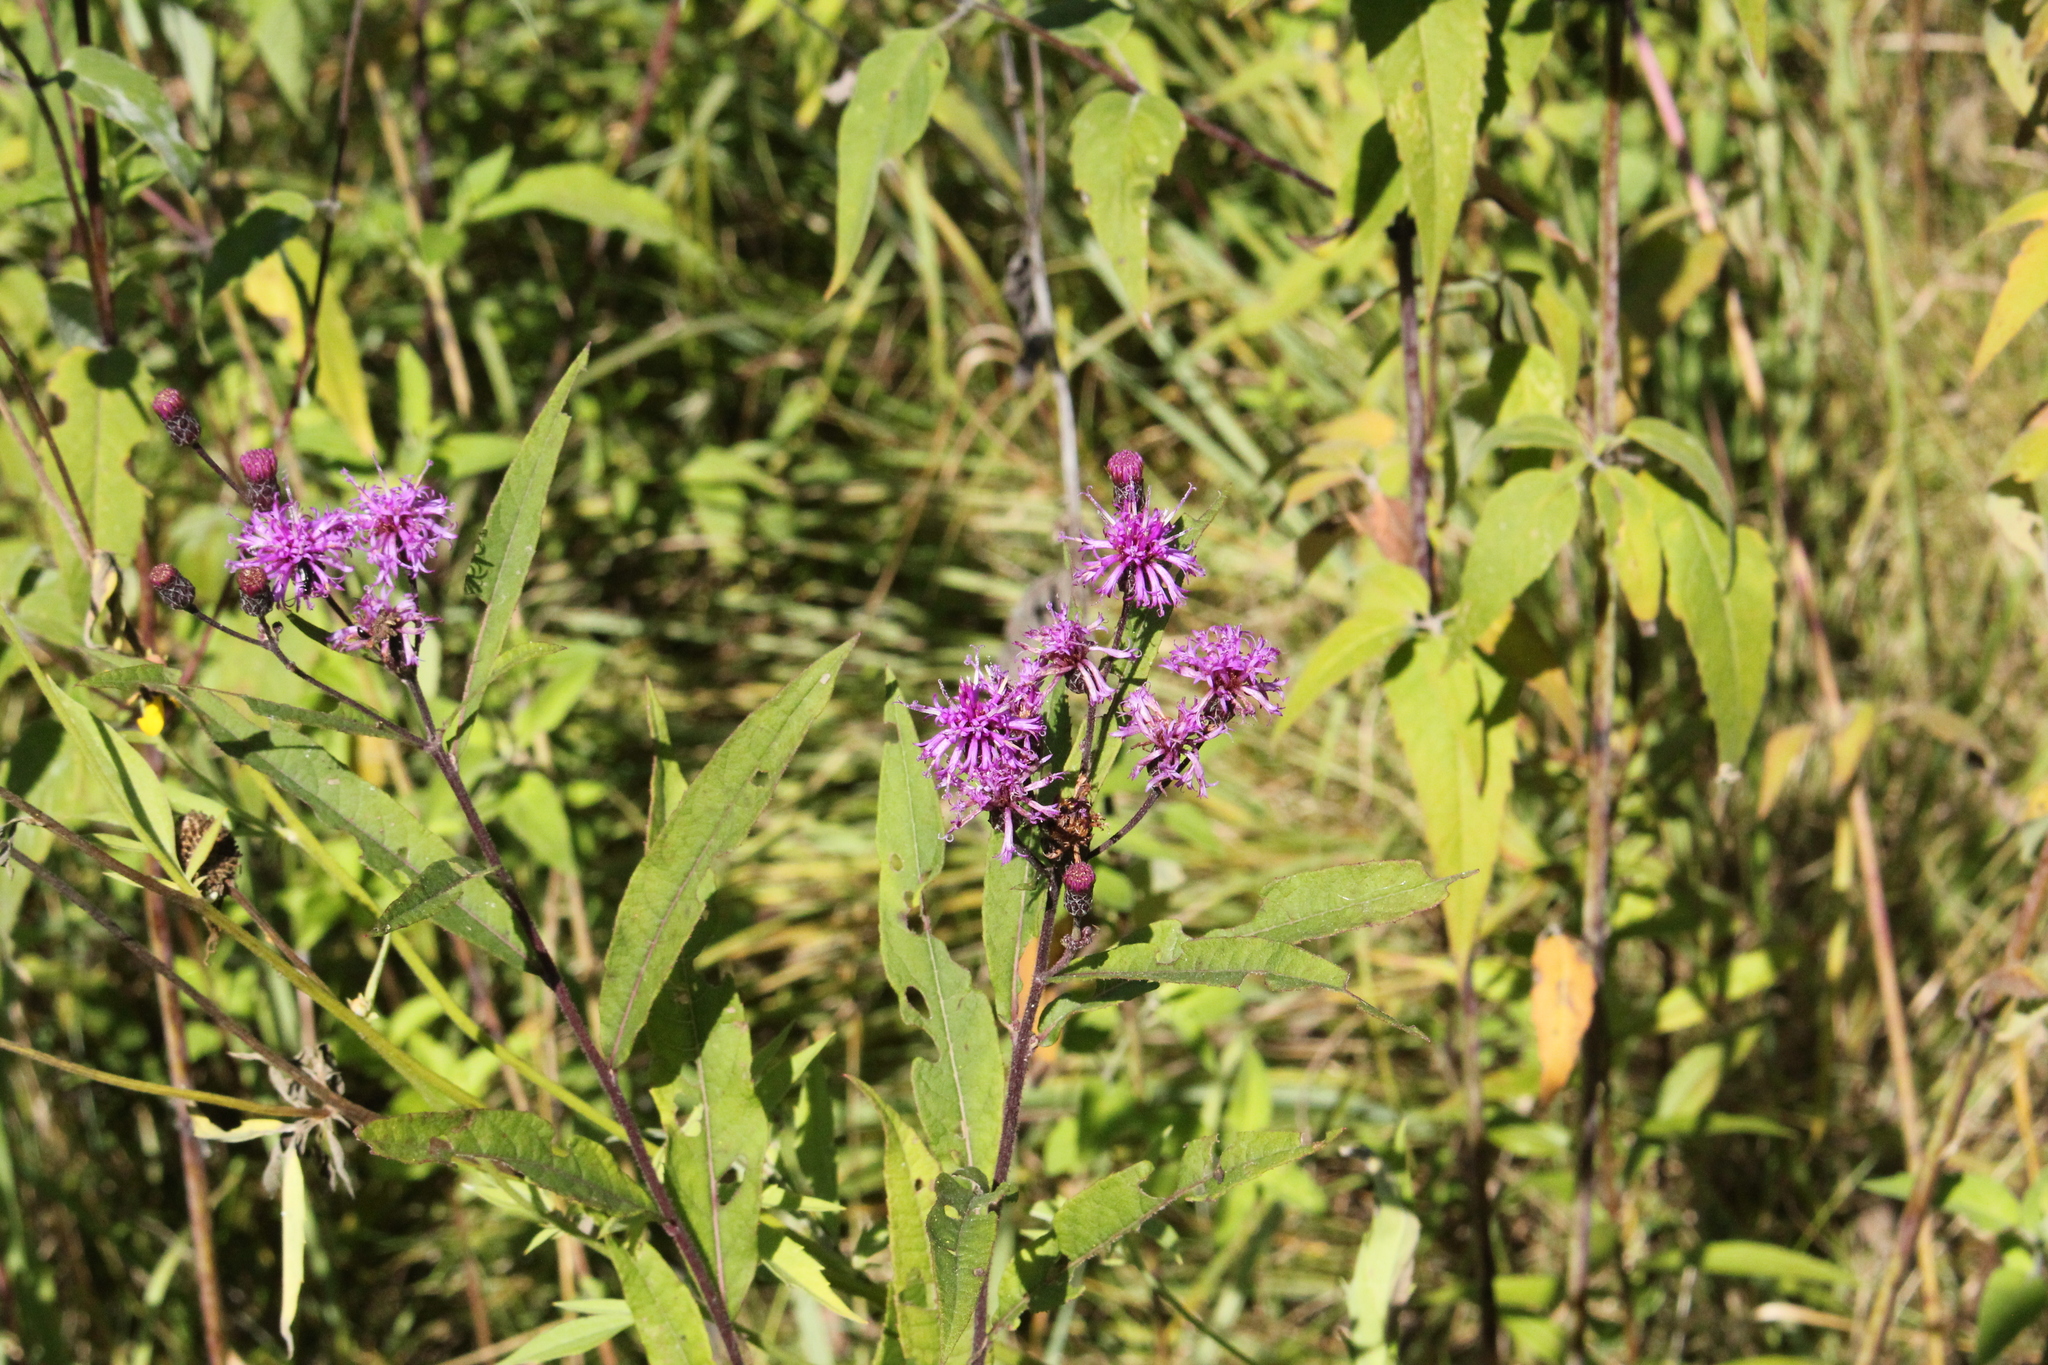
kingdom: Plantae
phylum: Tracheophyta
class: Magnoliopsida
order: Asterales
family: Asteraceae
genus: Vernonia
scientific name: Vernonia missurica
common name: Missouri ironweed
